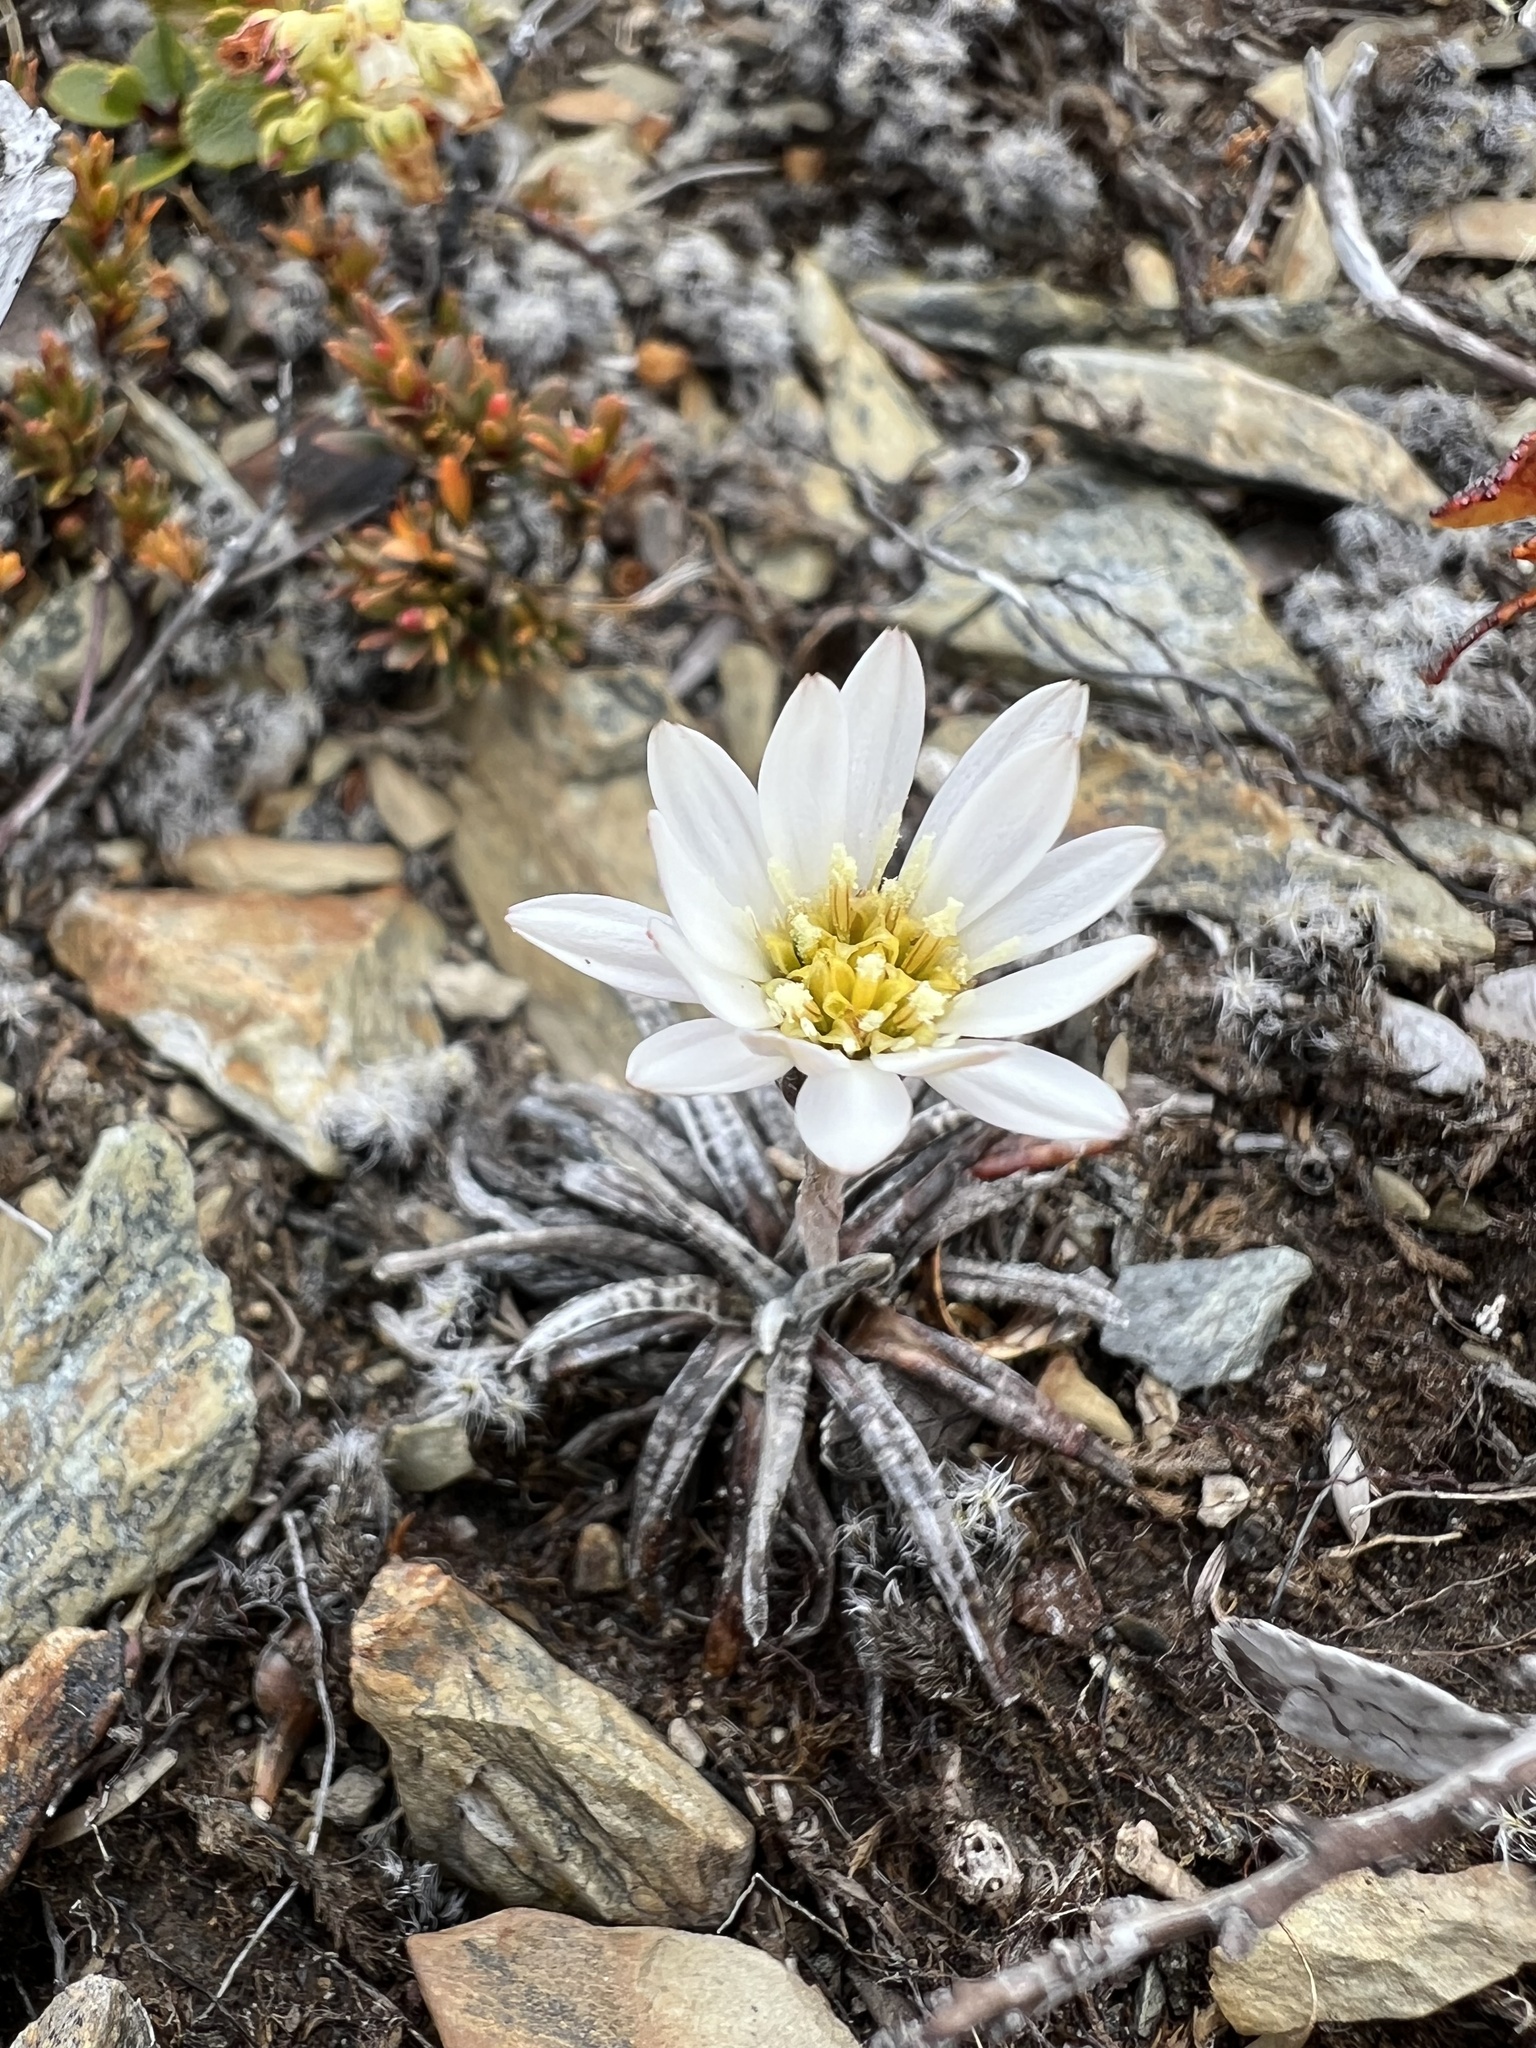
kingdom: Plantae
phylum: Tracheophyta
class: Magnoliopsida
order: Asterales
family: Asteraceae
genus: Celmisia
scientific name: Celmisia gracilenta
